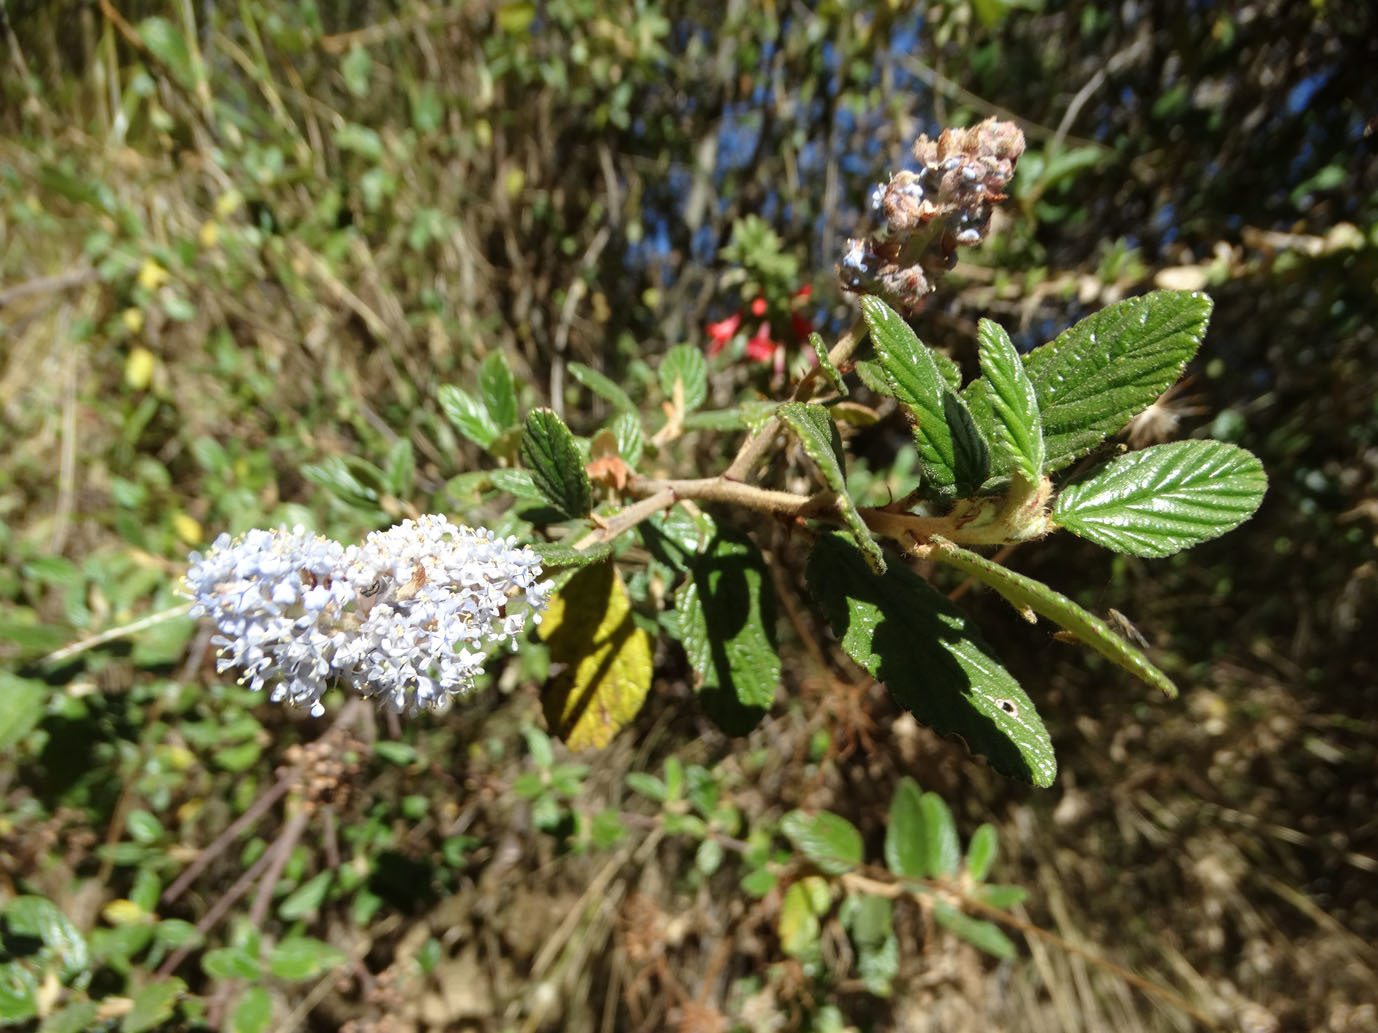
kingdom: Plantae
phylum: Tracheophyta
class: Magnoliopsida
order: Rosales
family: Rhamnaceae
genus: Ceanothus
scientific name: Ceanothus caeruleus
